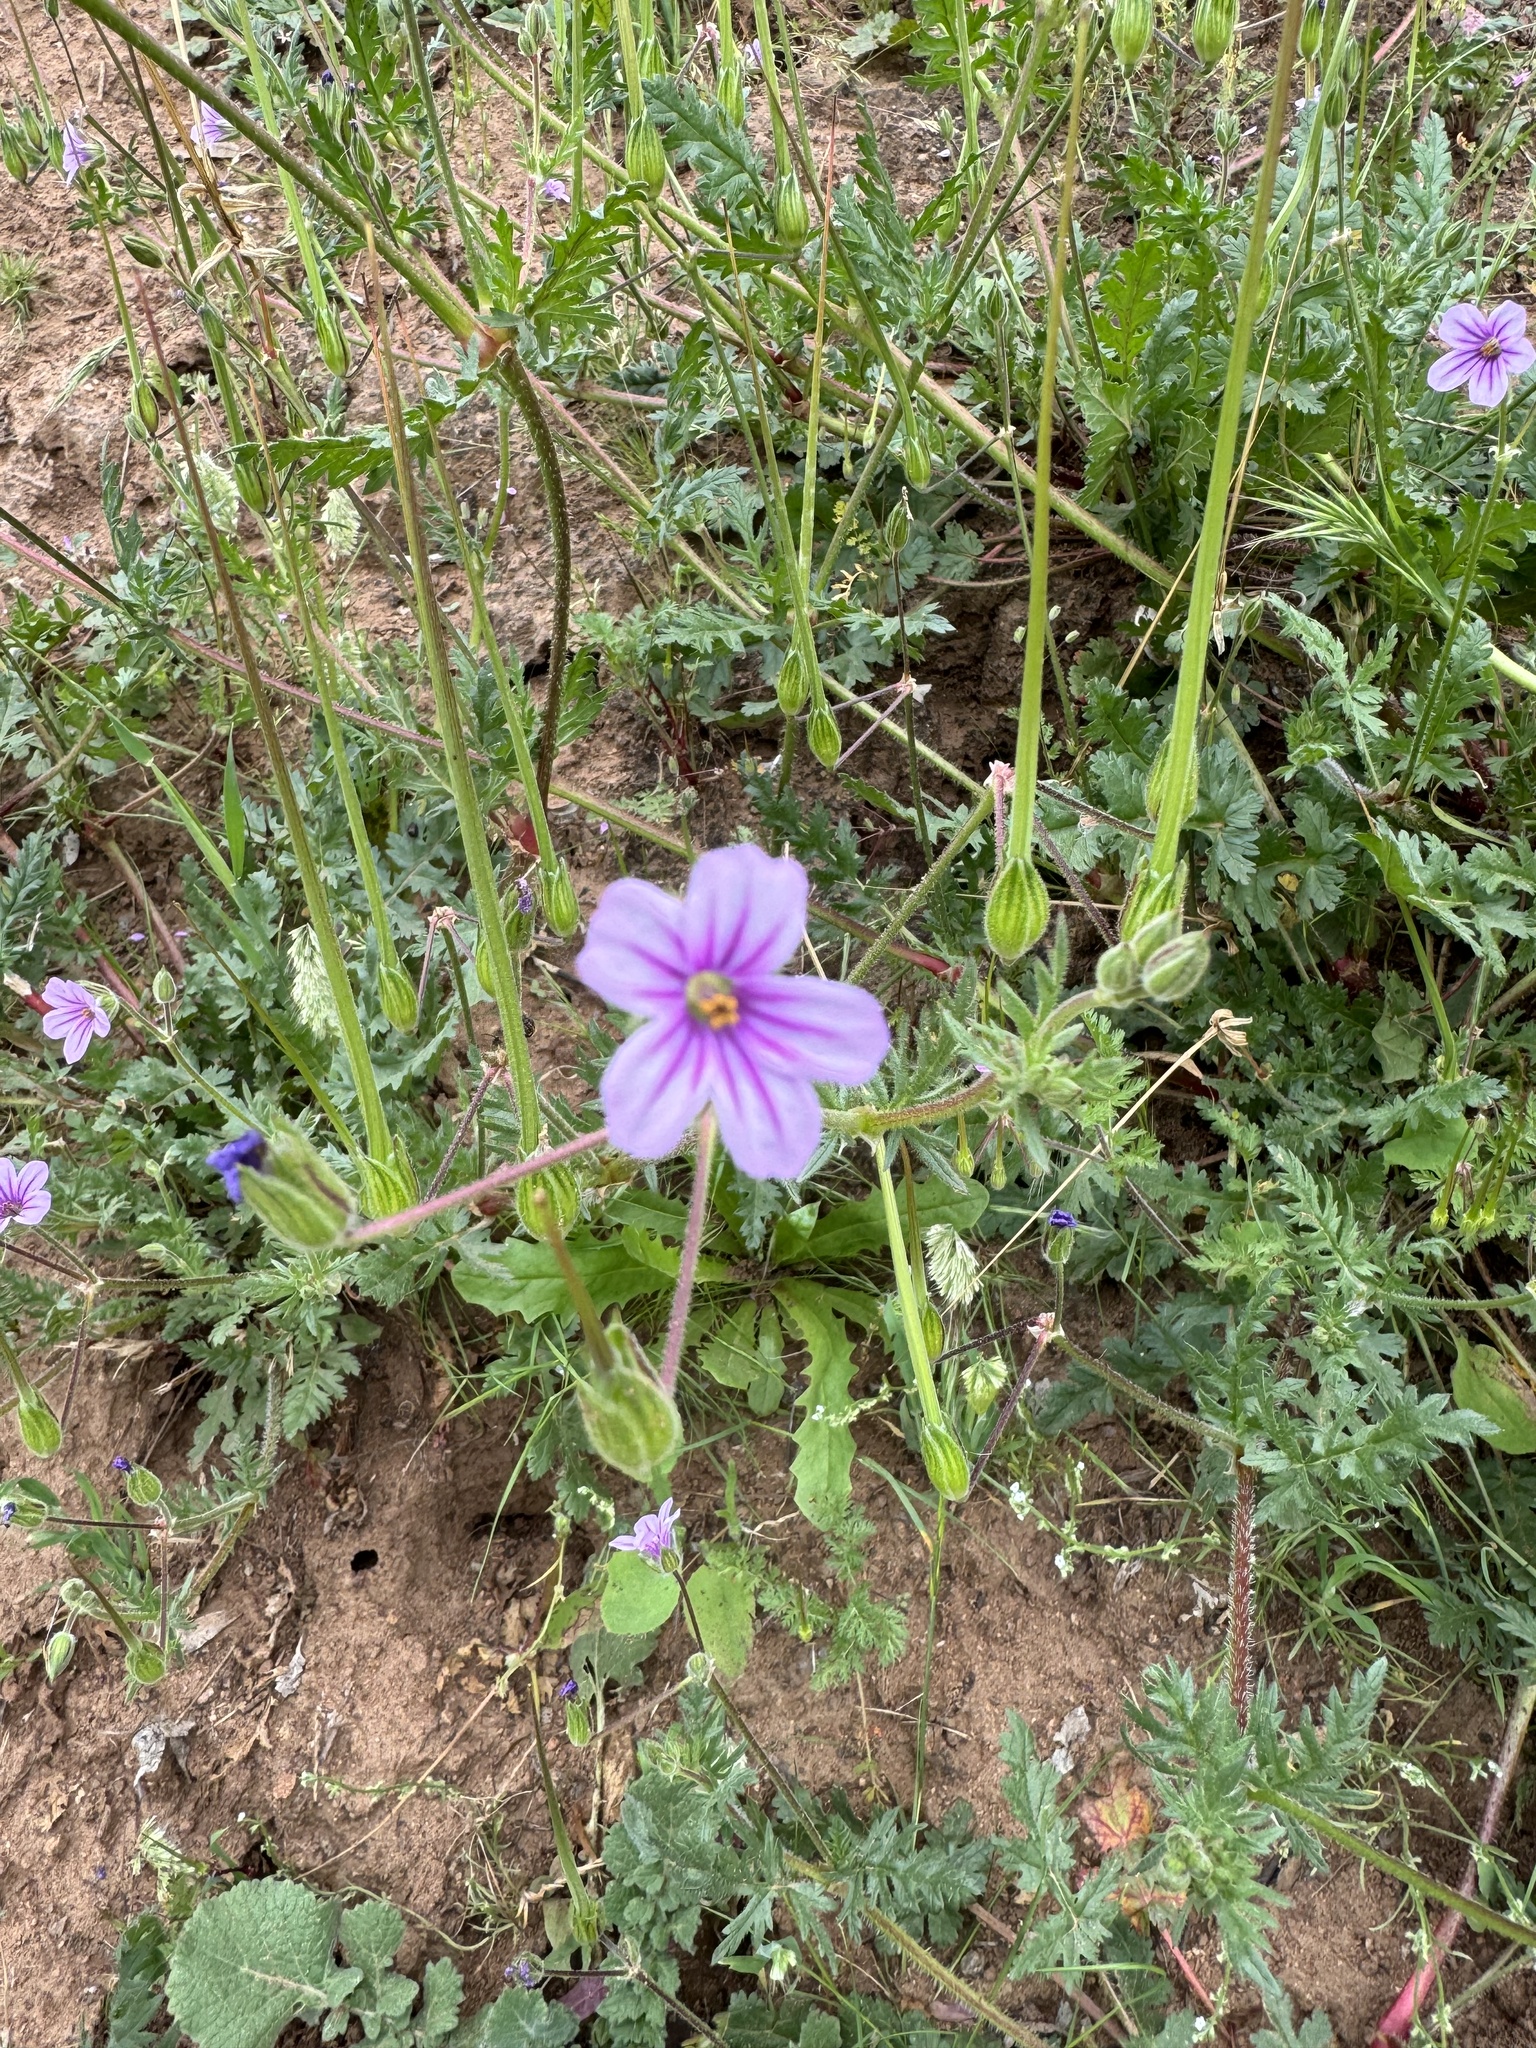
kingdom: Plantae
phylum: Tracheophyta
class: Magnoliopsida
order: Geraniales
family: Geraniaceae
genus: Erodium
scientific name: Erodium botrys
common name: Mediterranean stork's-bill
